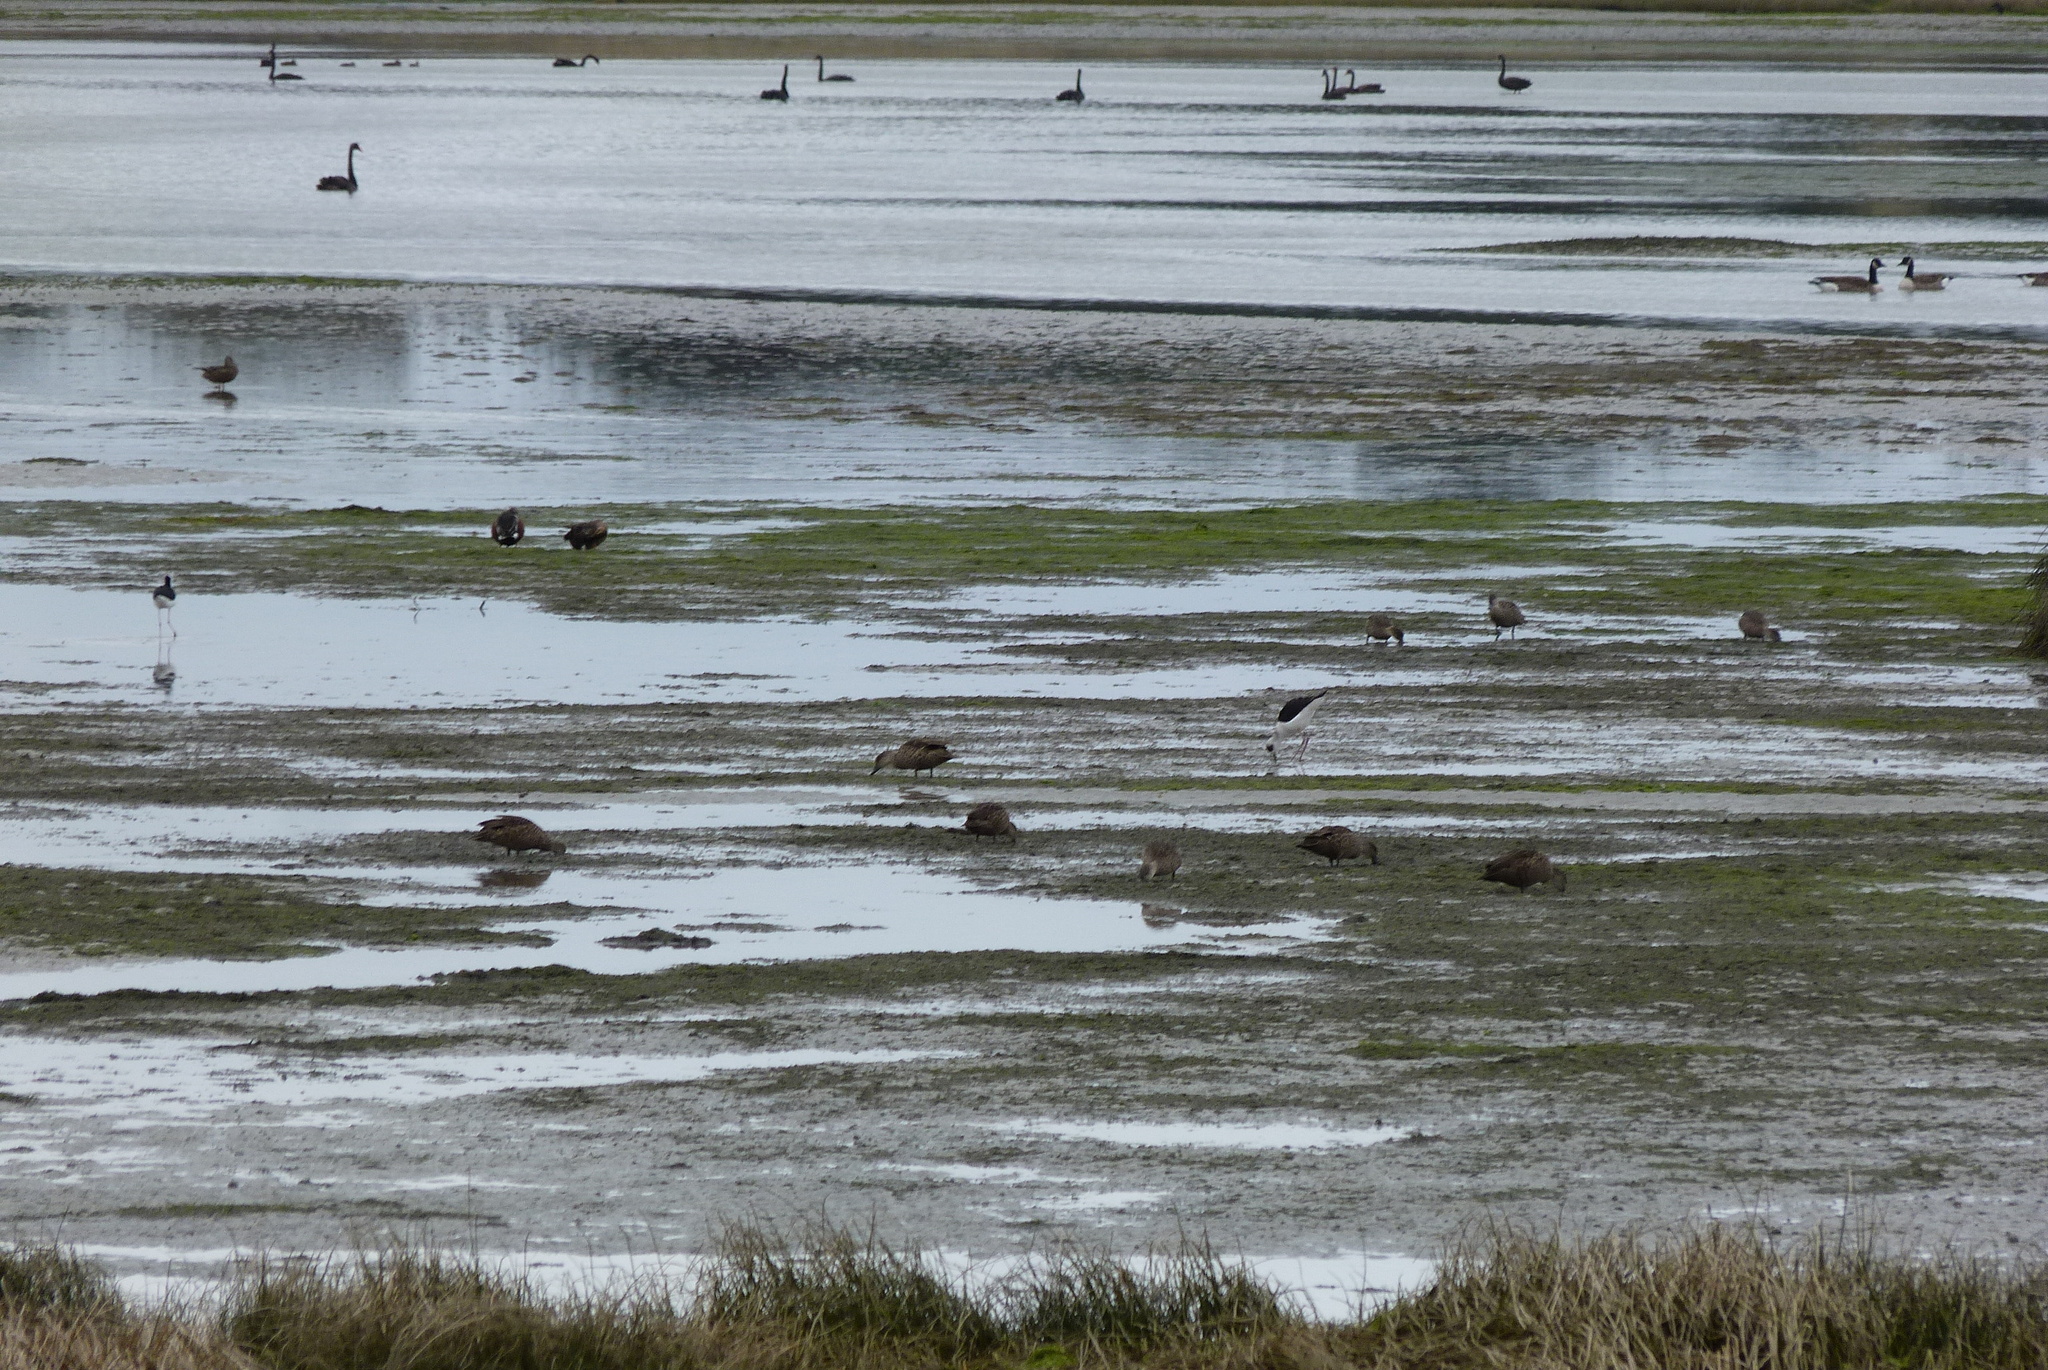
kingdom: Animalia
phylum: Chordata
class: Aves
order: Anseriformes
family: Anatidae
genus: Anas
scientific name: Anas gracilis
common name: Grey teal
